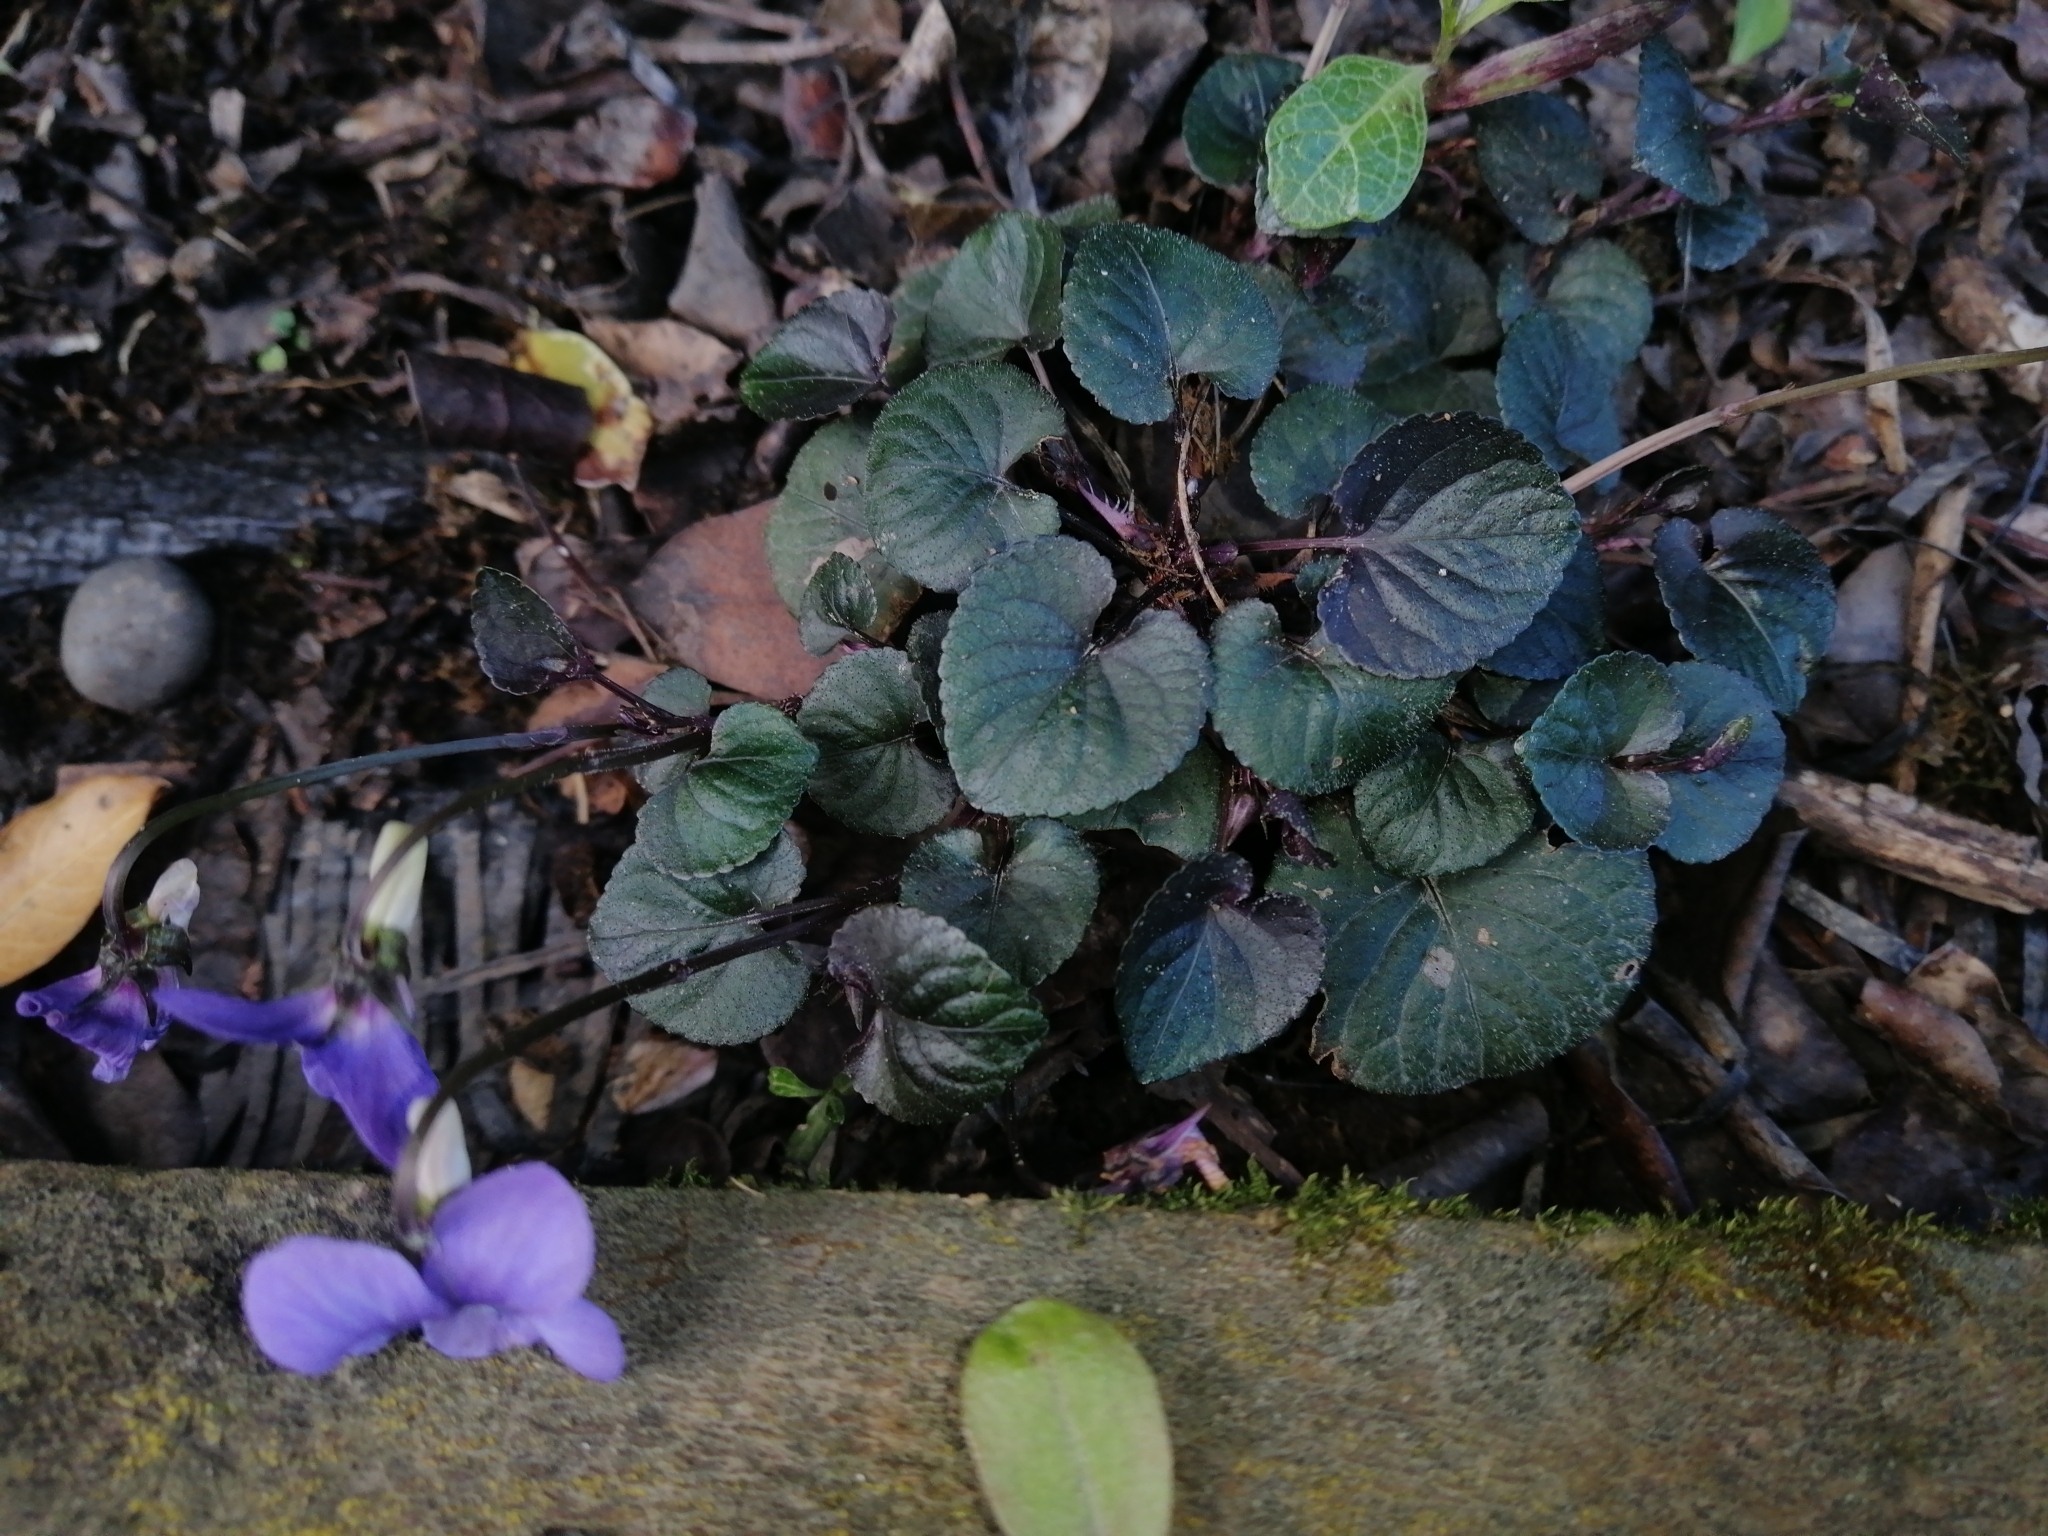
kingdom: Plantae
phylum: Tracheophyta
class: Magnoliopsida
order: Malpighiales
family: Violaceae
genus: Viola
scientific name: Viola riviniana
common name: Common dog-violet
